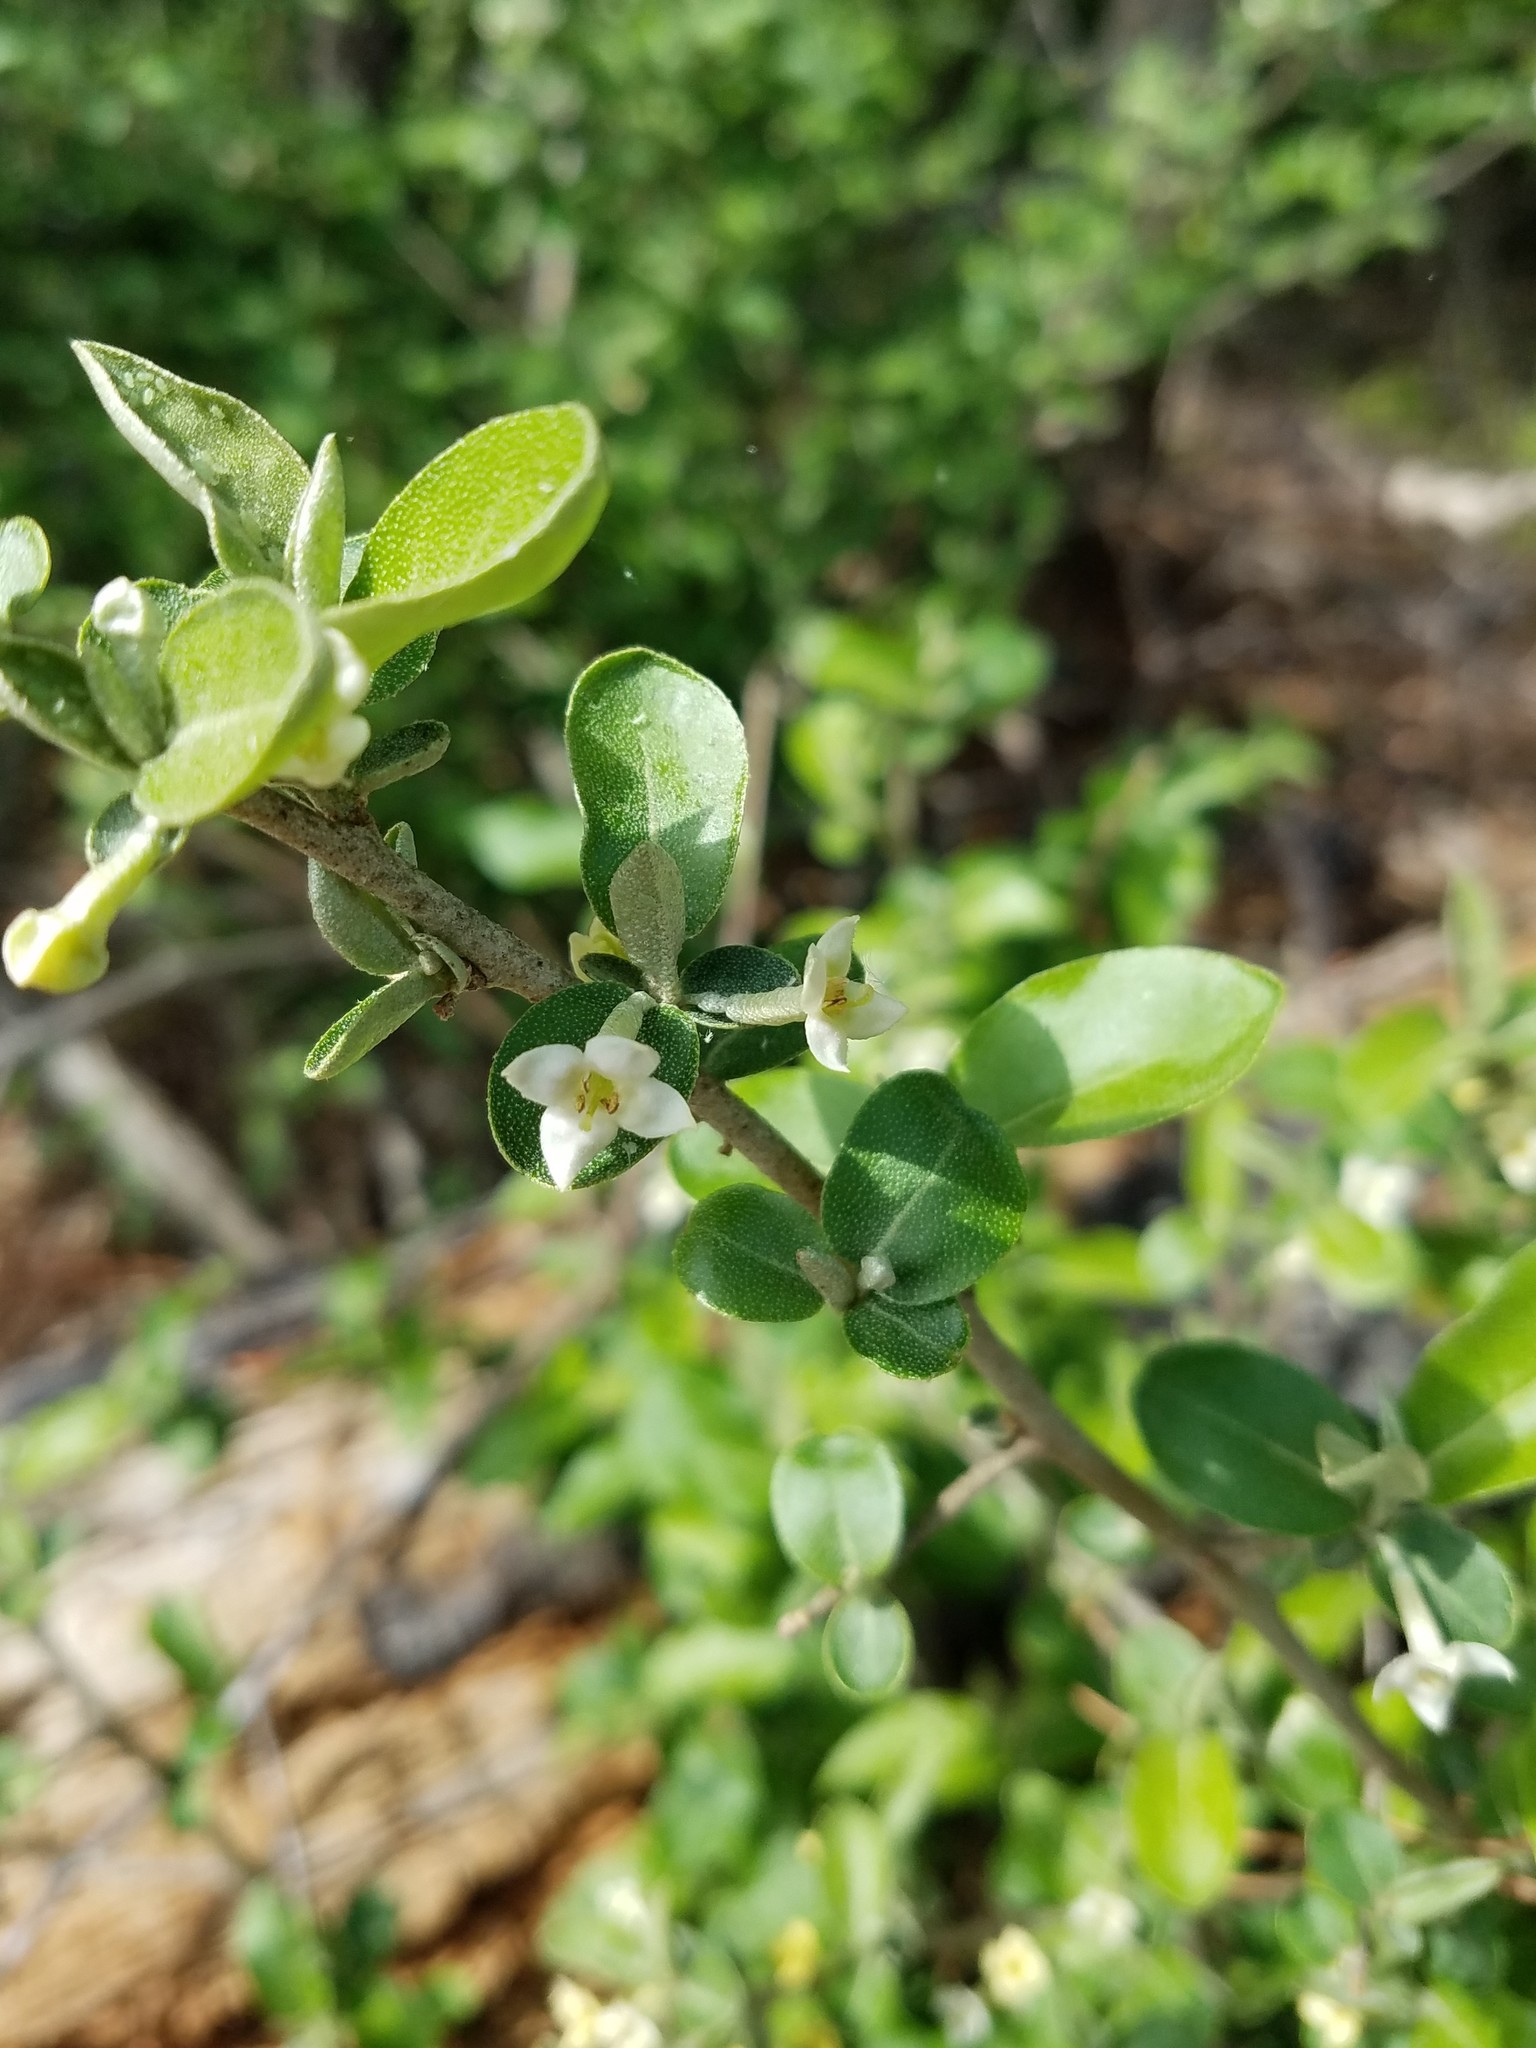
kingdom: Plantae
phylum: Tracheophyta
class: Magnoliopsida
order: Rosales
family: Elaeagnaceae
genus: Elaeagnus
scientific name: Elaeagnus umbellata
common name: Autumn olive
